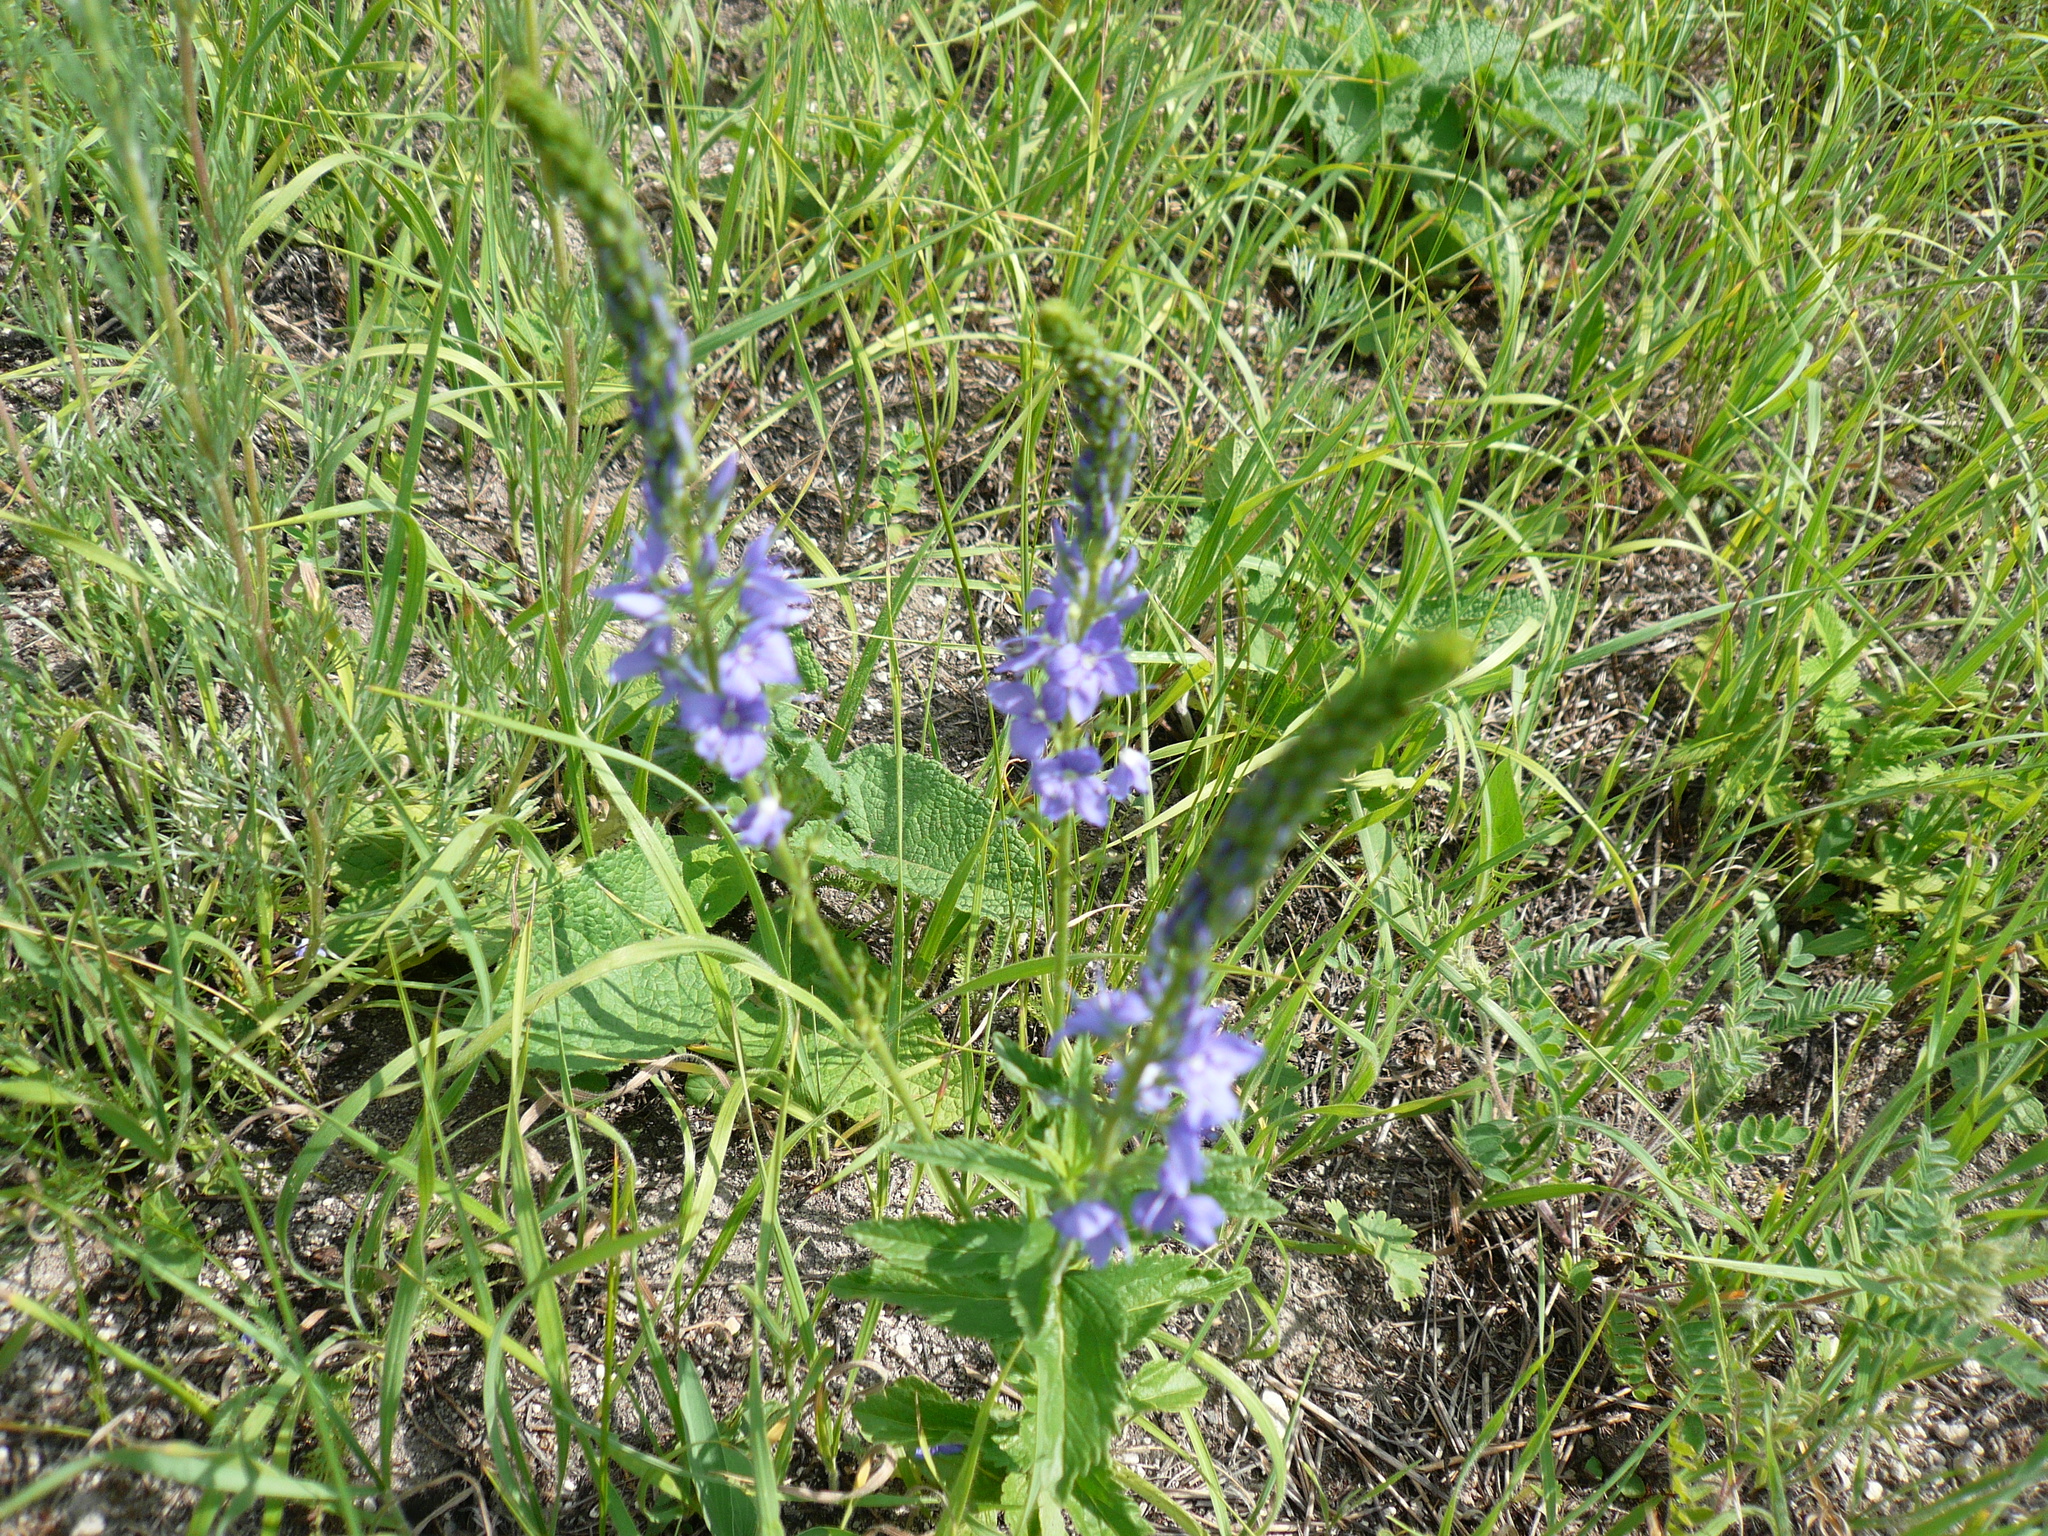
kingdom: Plantae
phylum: Tracheophyta
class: Magnoliopsida
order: Lamiales
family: Plantaginaceae
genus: Veronica
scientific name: Veronica teucrium
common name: Large speedwell
